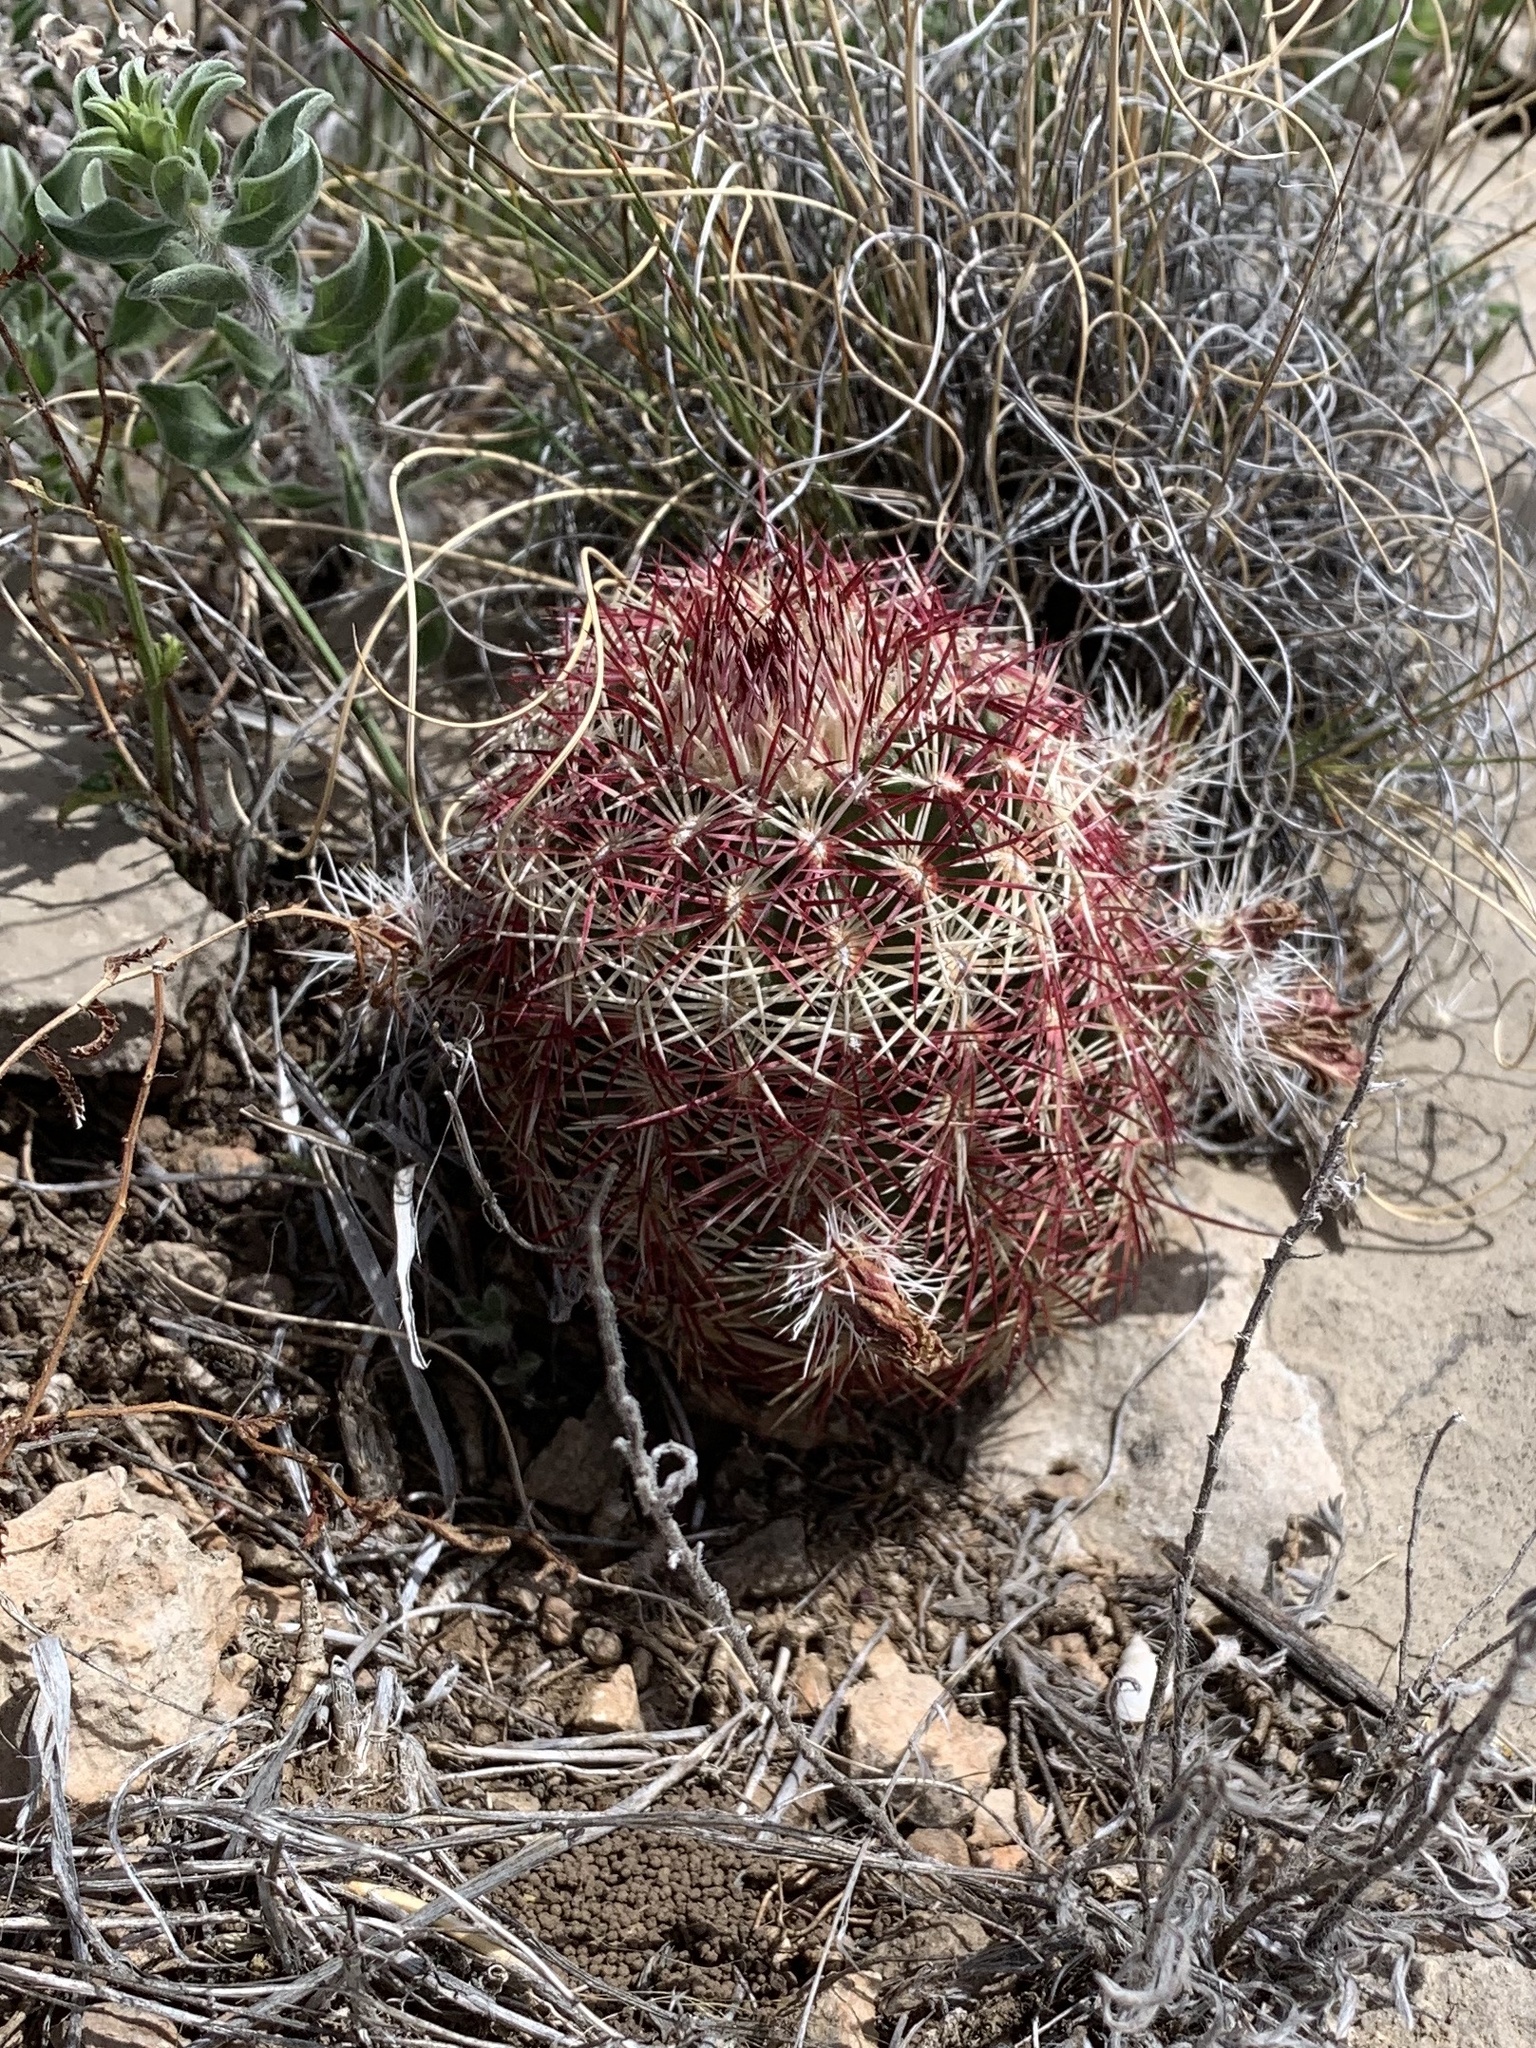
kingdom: Plantae
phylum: Tracheophyta
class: Magnoliopsida
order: Caryophyllales
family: Cactaceae
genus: Echinocereus
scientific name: Echinocereus viridiflorus
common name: Nylon hedgehog cactus
